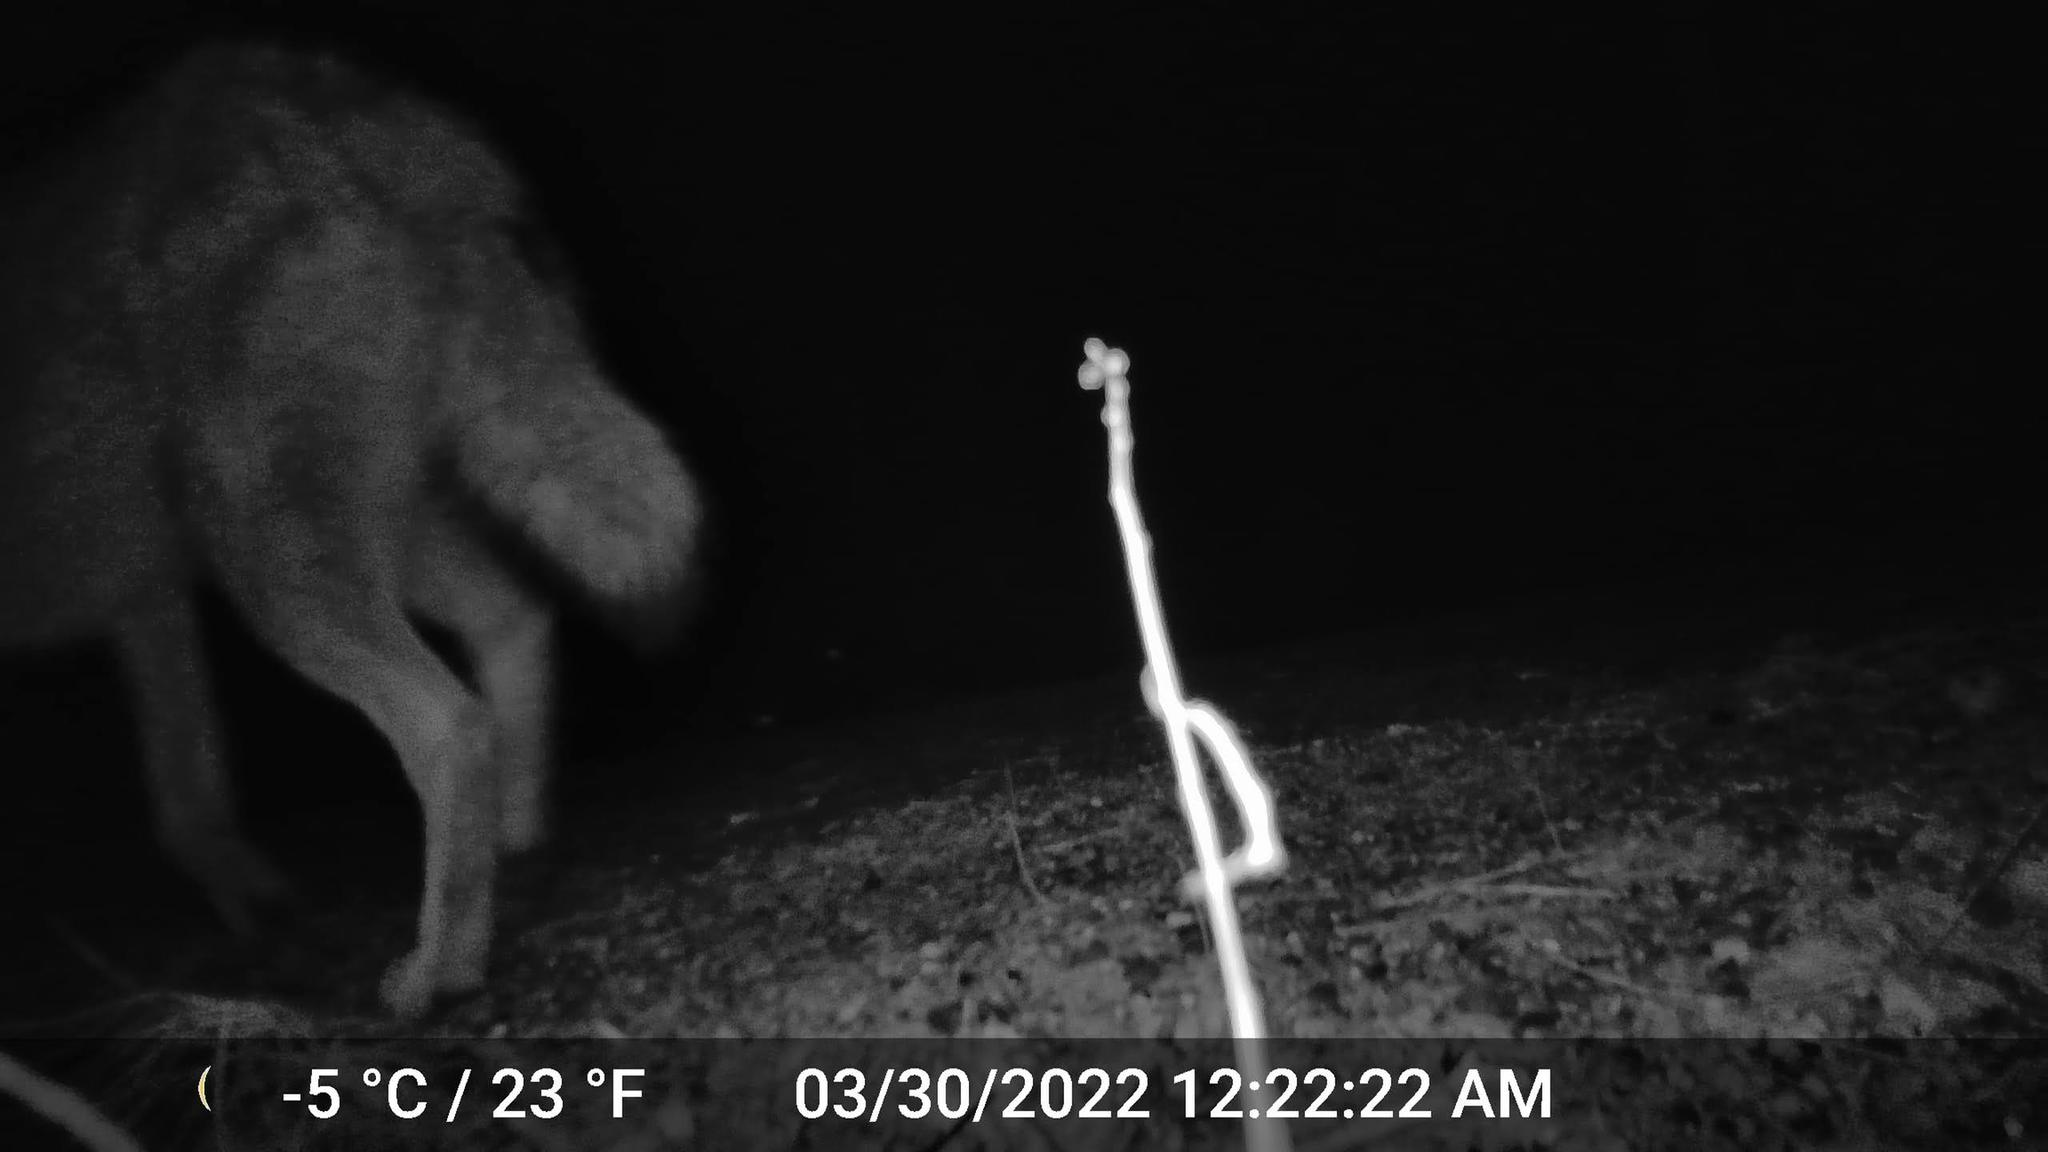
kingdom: Animalia
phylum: Chordata
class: Mammalia
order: Carnivora
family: Canidae
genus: Canis
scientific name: Canis latrans
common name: Coyote
